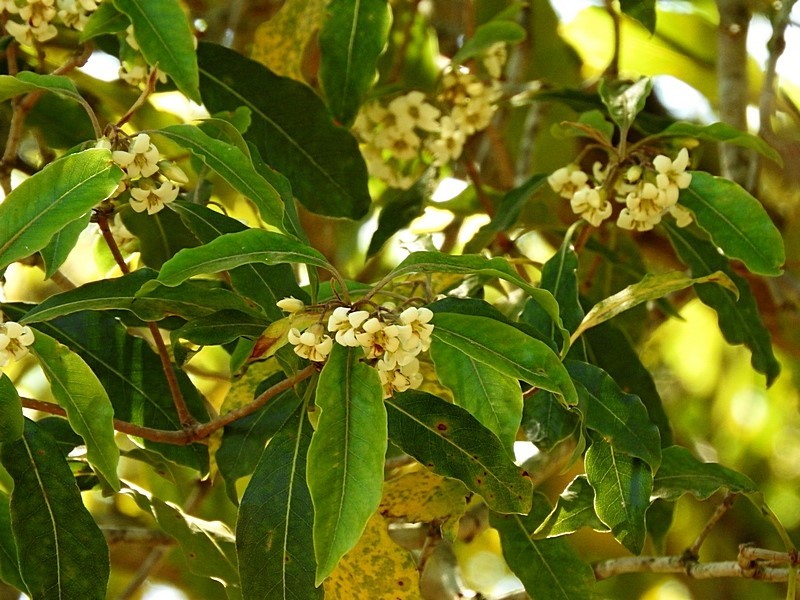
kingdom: Plantae
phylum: Tracheophyta
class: Magnoliopsida
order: Apiales
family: Pittosporaceae
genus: Pittosporum
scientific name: Pittosporum undulatum
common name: Australian cheesewood
